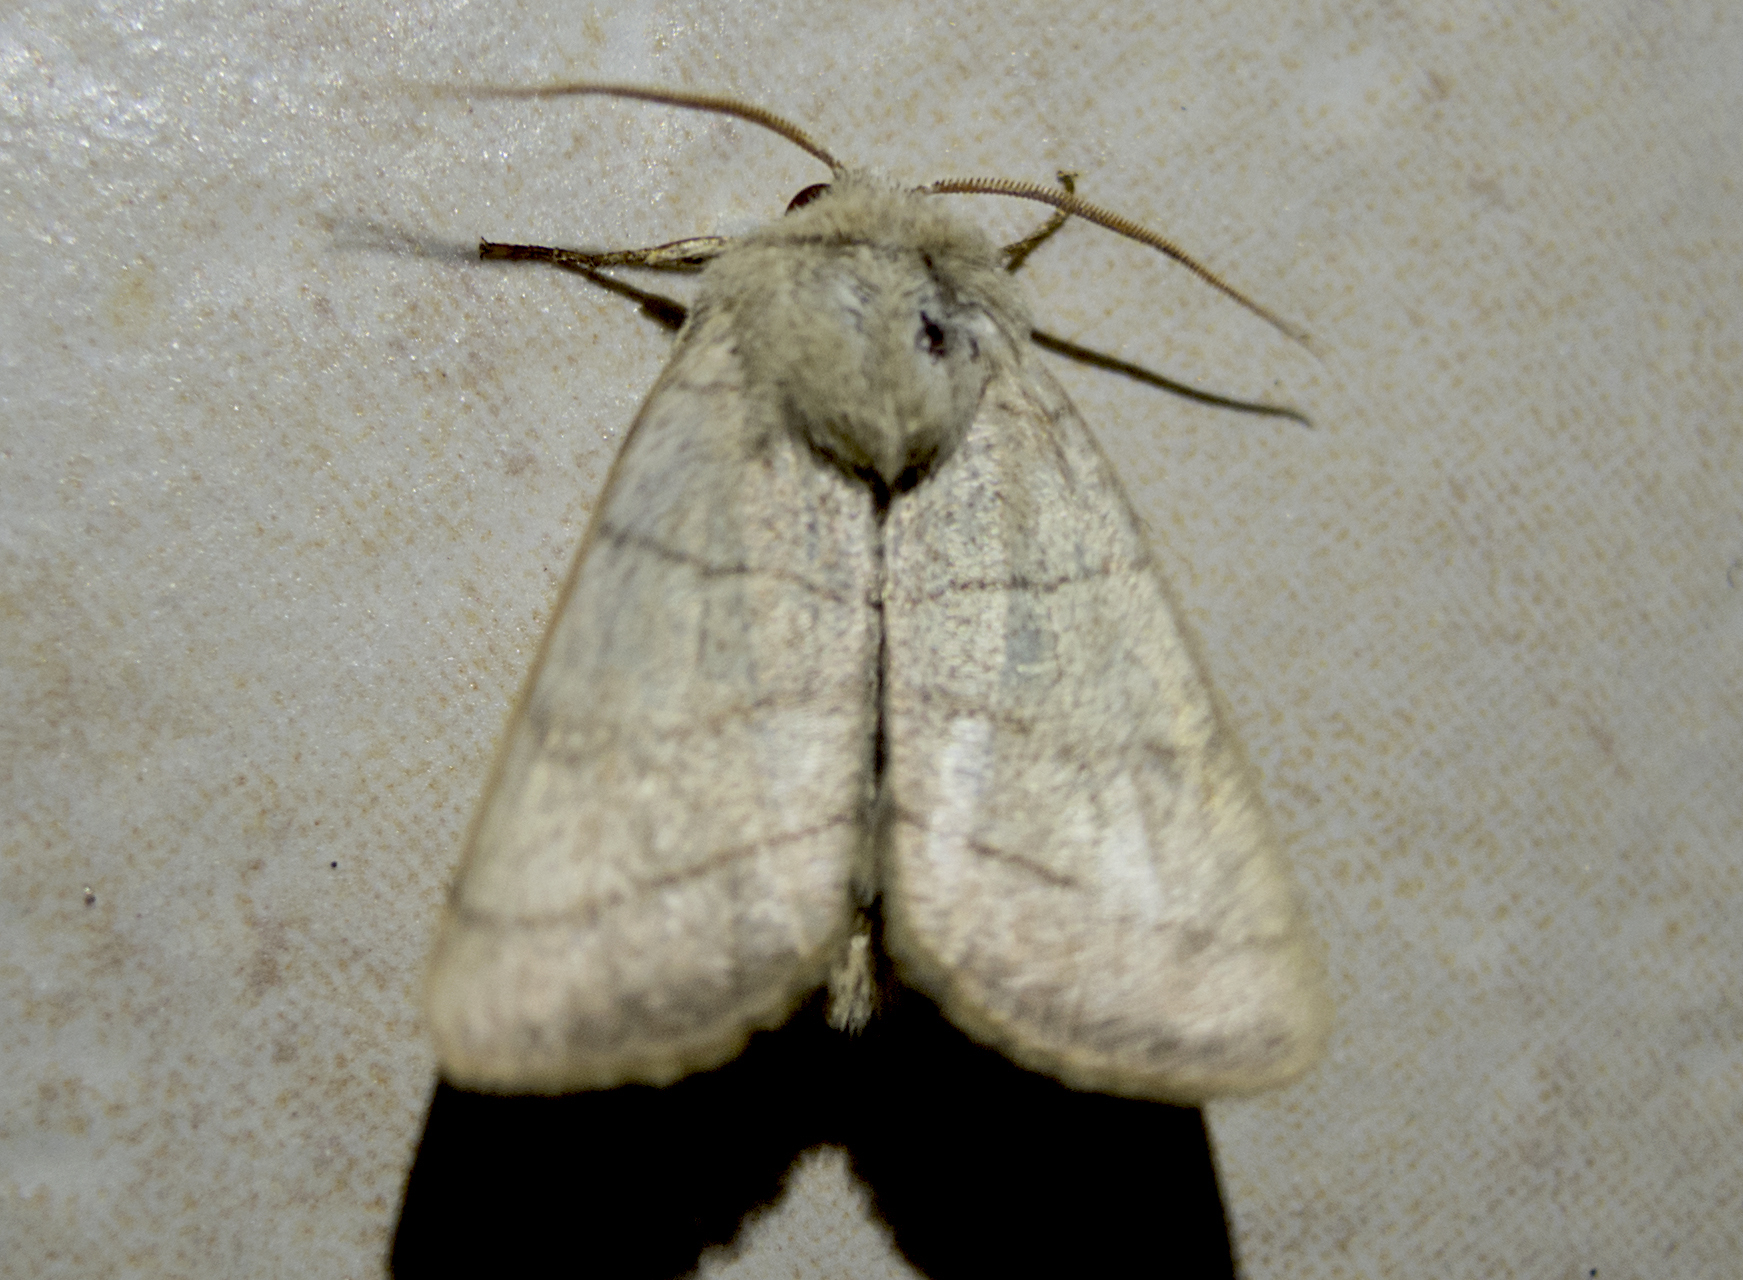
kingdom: Animalia
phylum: Arthropoda
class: Insecta
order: Lepidoptera
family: Noctuidae
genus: Charanyca
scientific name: Charanyca trigrammica
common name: Treble lines
